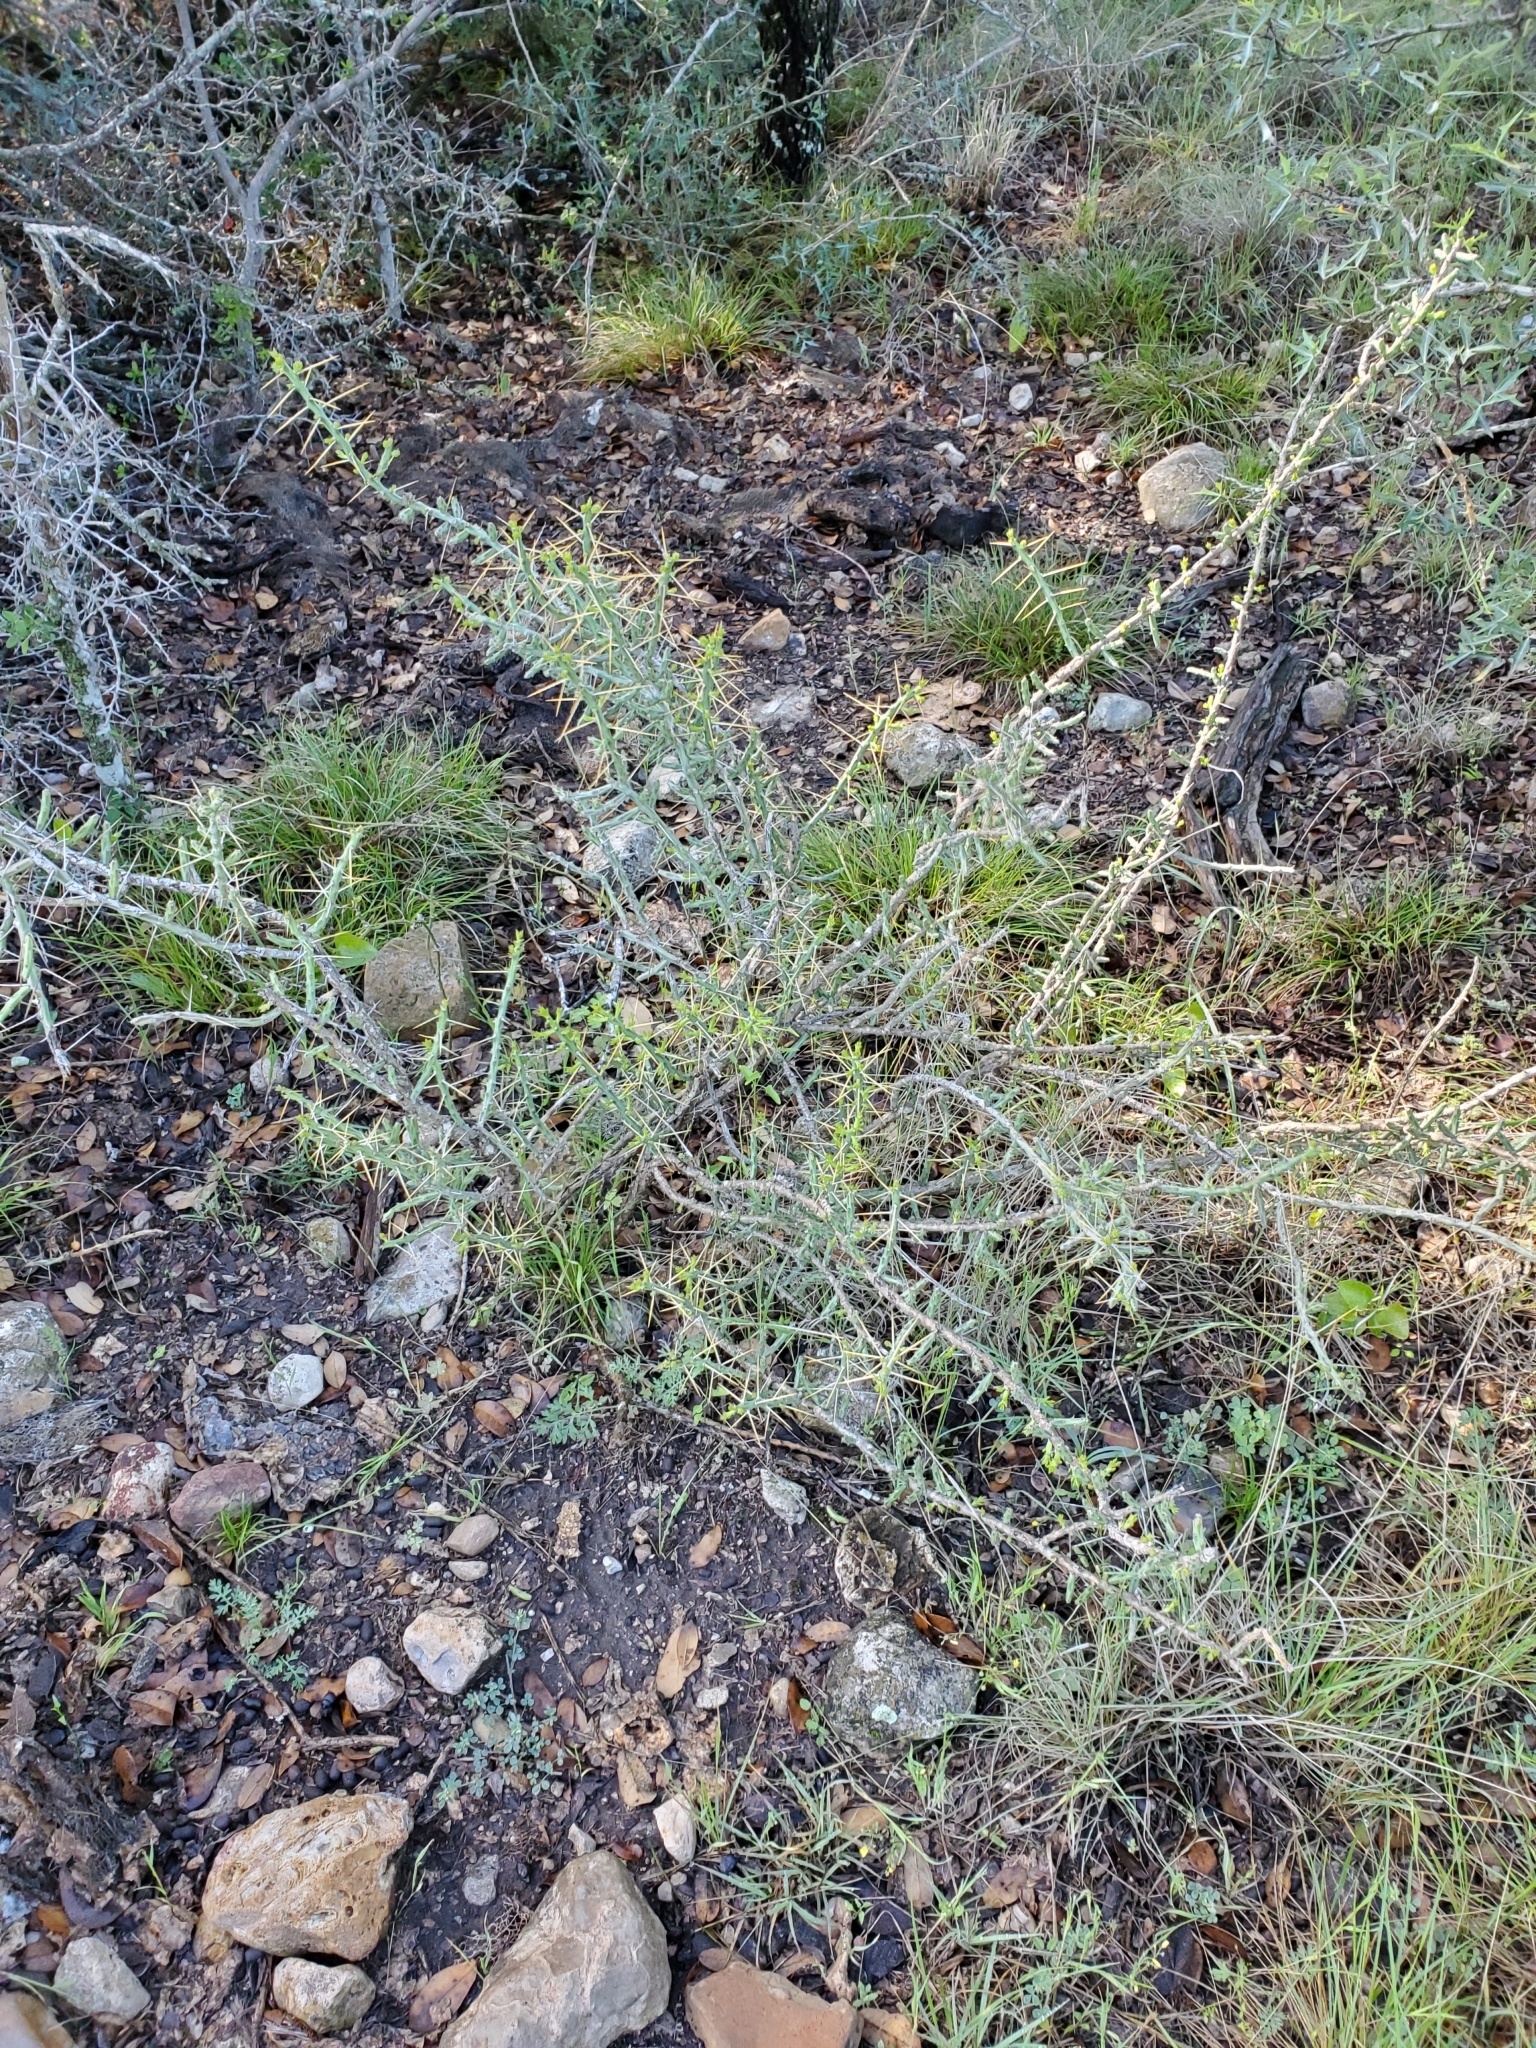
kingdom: Plantae
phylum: Tracheophyta
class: Magnoliopsida
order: Caryophyllales
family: Cactaceae
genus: Cylindropuntia
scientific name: Cylindropuntia leptocaulis
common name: Christmas cactus
